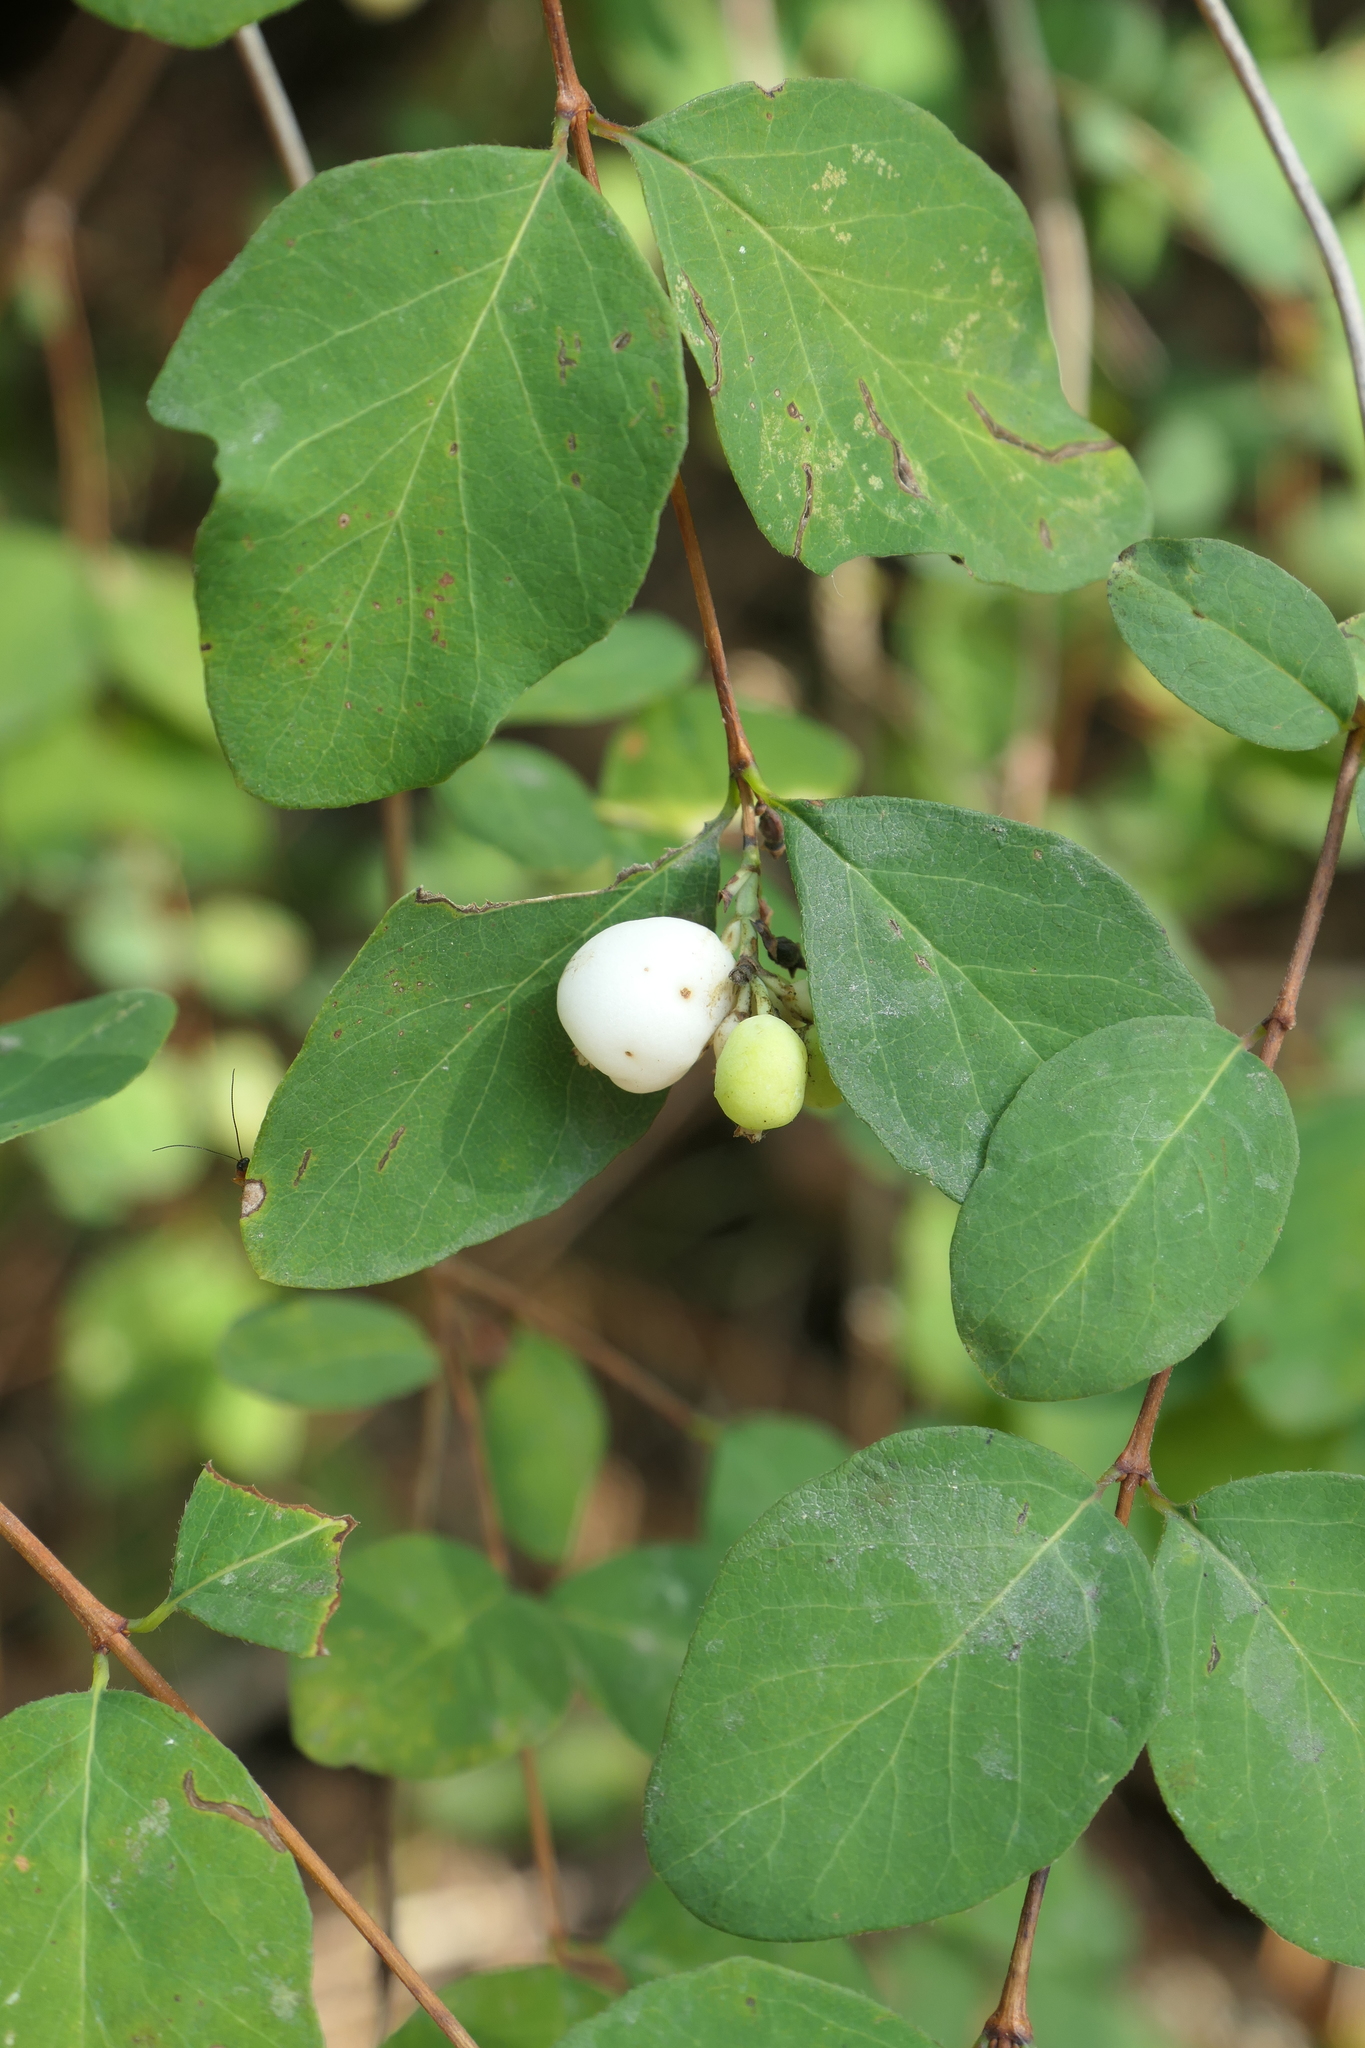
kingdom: Plantae
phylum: Tracheophyta
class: Magnoliopsida
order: Dipsacales
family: Caprifoliaceae
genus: Symphoricarpos
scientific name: Symphoricarpos albus
